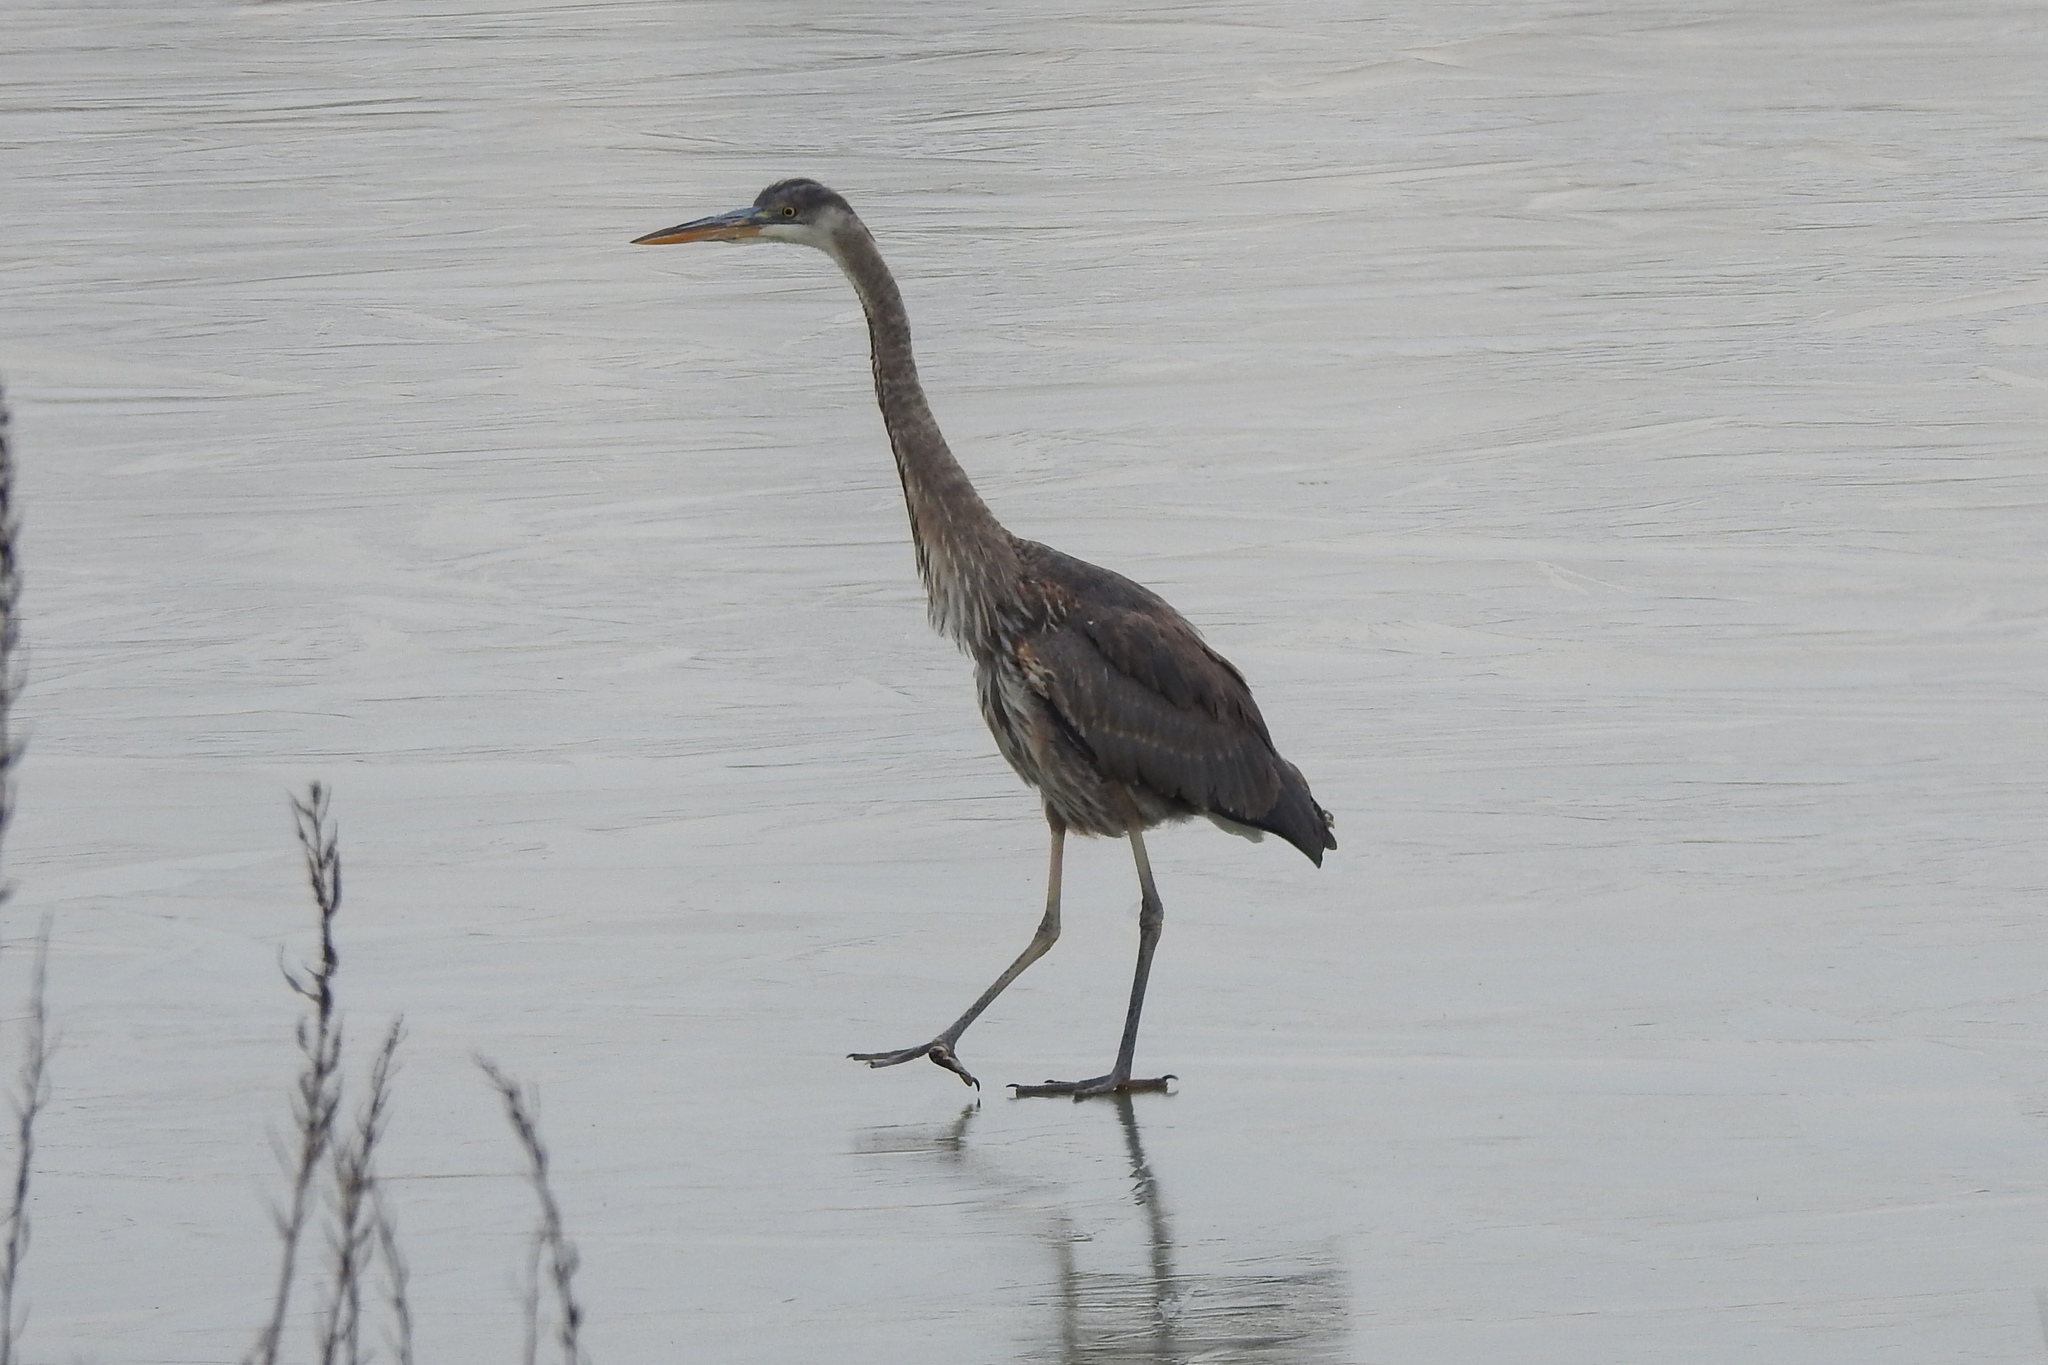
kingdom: Animalia
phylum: Chordata
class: Aves
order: Pelecaniformes
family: Ardeidae
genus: Ardea
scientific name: Ardea herodias
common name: Great blue heron
